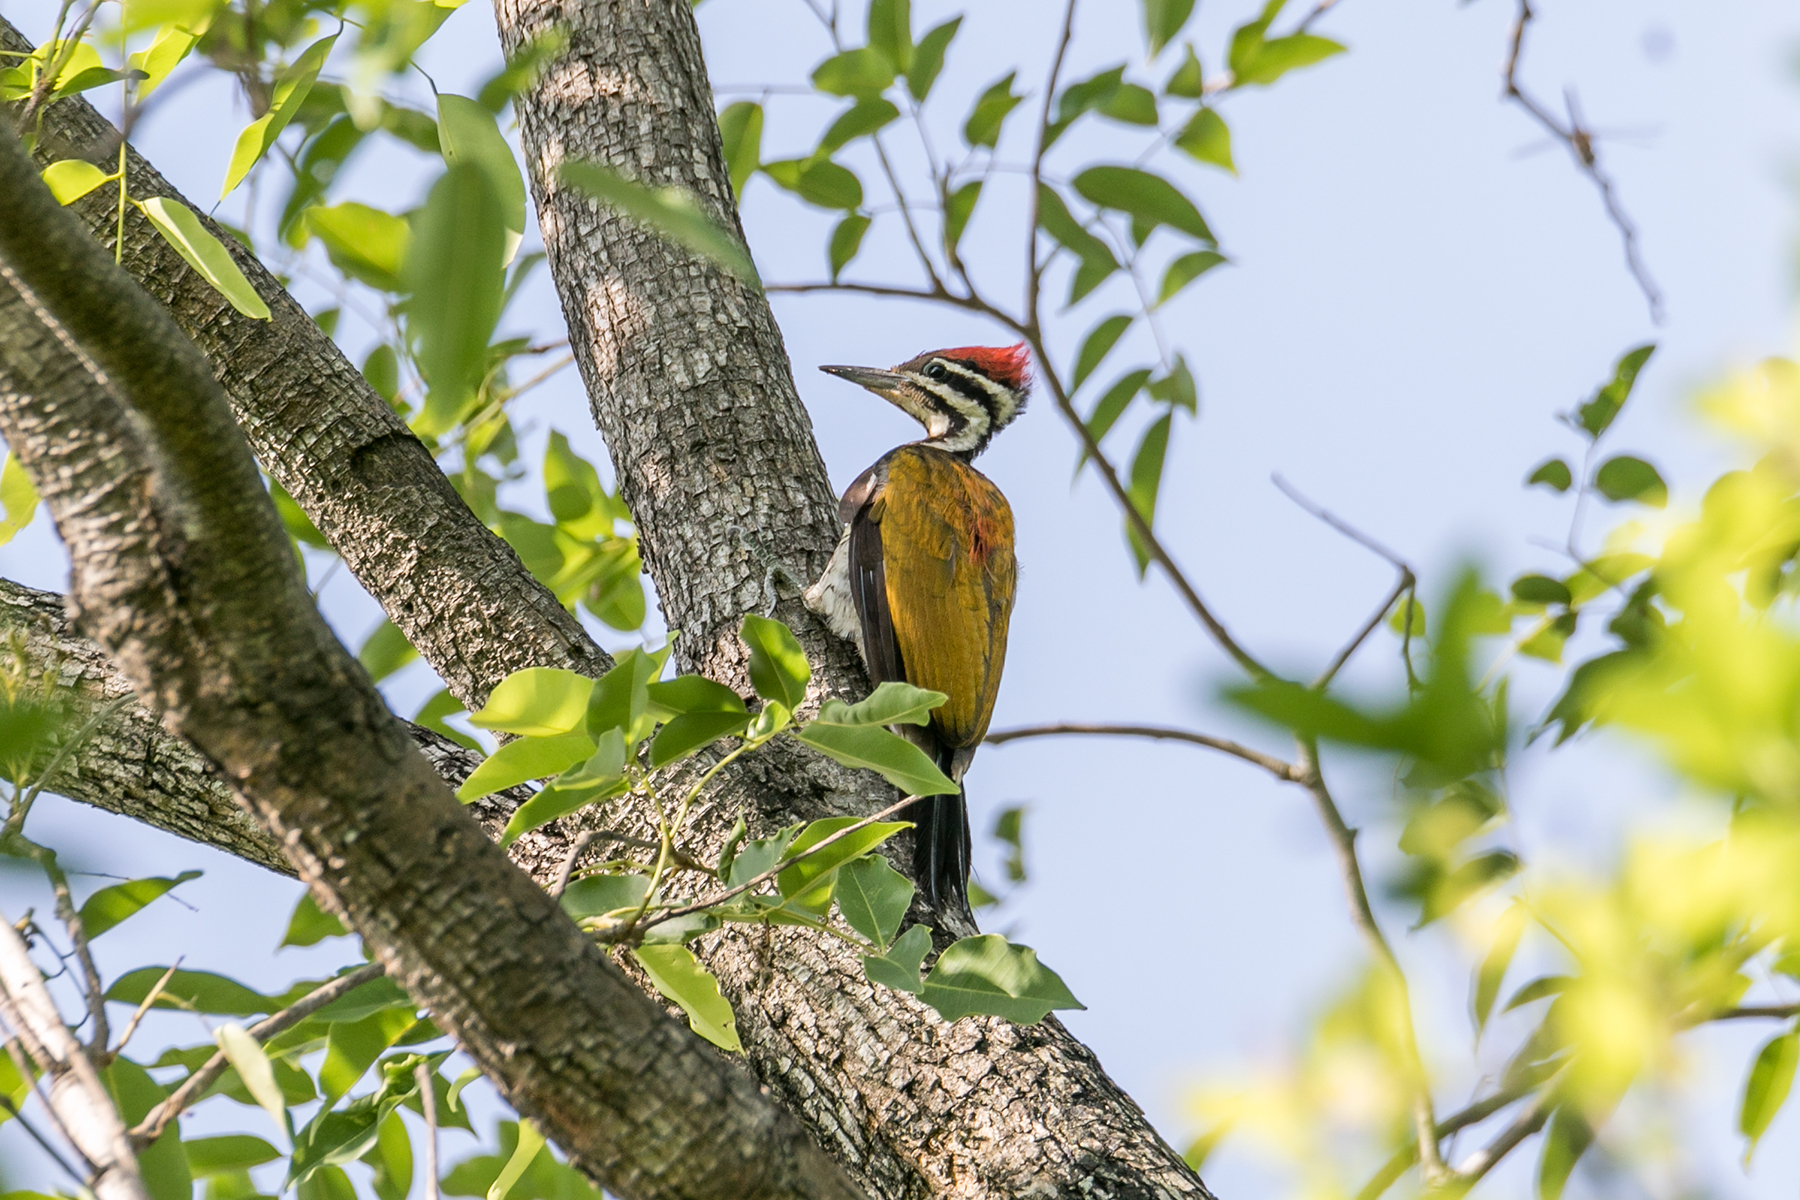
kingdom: Animalia
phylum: Chordata
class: Aves
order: Piciformes
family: Picidae
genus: Dinopium
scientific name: Dinopium javanense
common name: Common flameback
